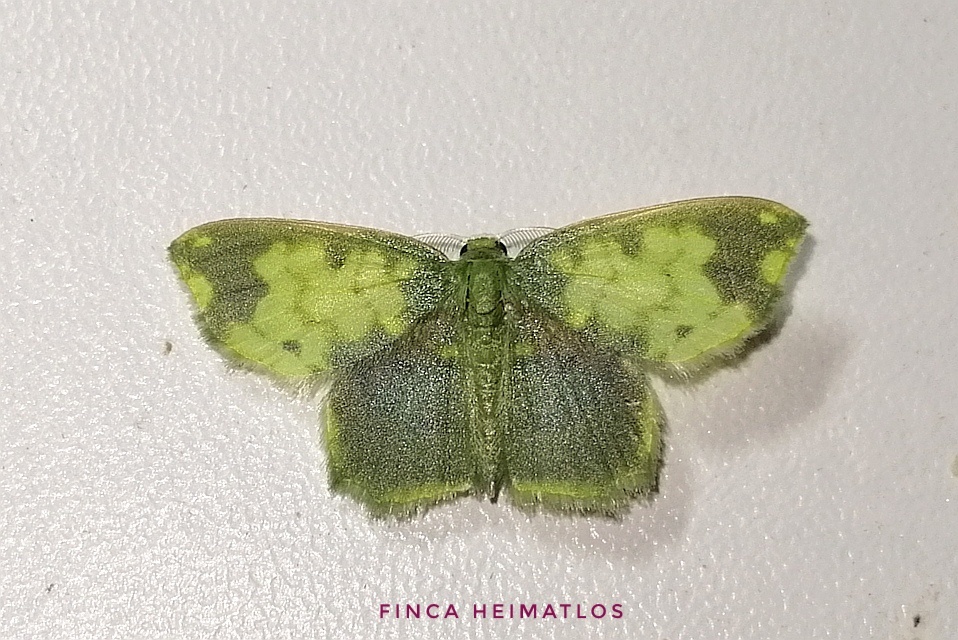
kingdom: Animalia
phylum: Arthropoda
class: Insecta
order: Lepidoptera
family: Geometridae
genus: Hydata
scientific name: Hydata povera
